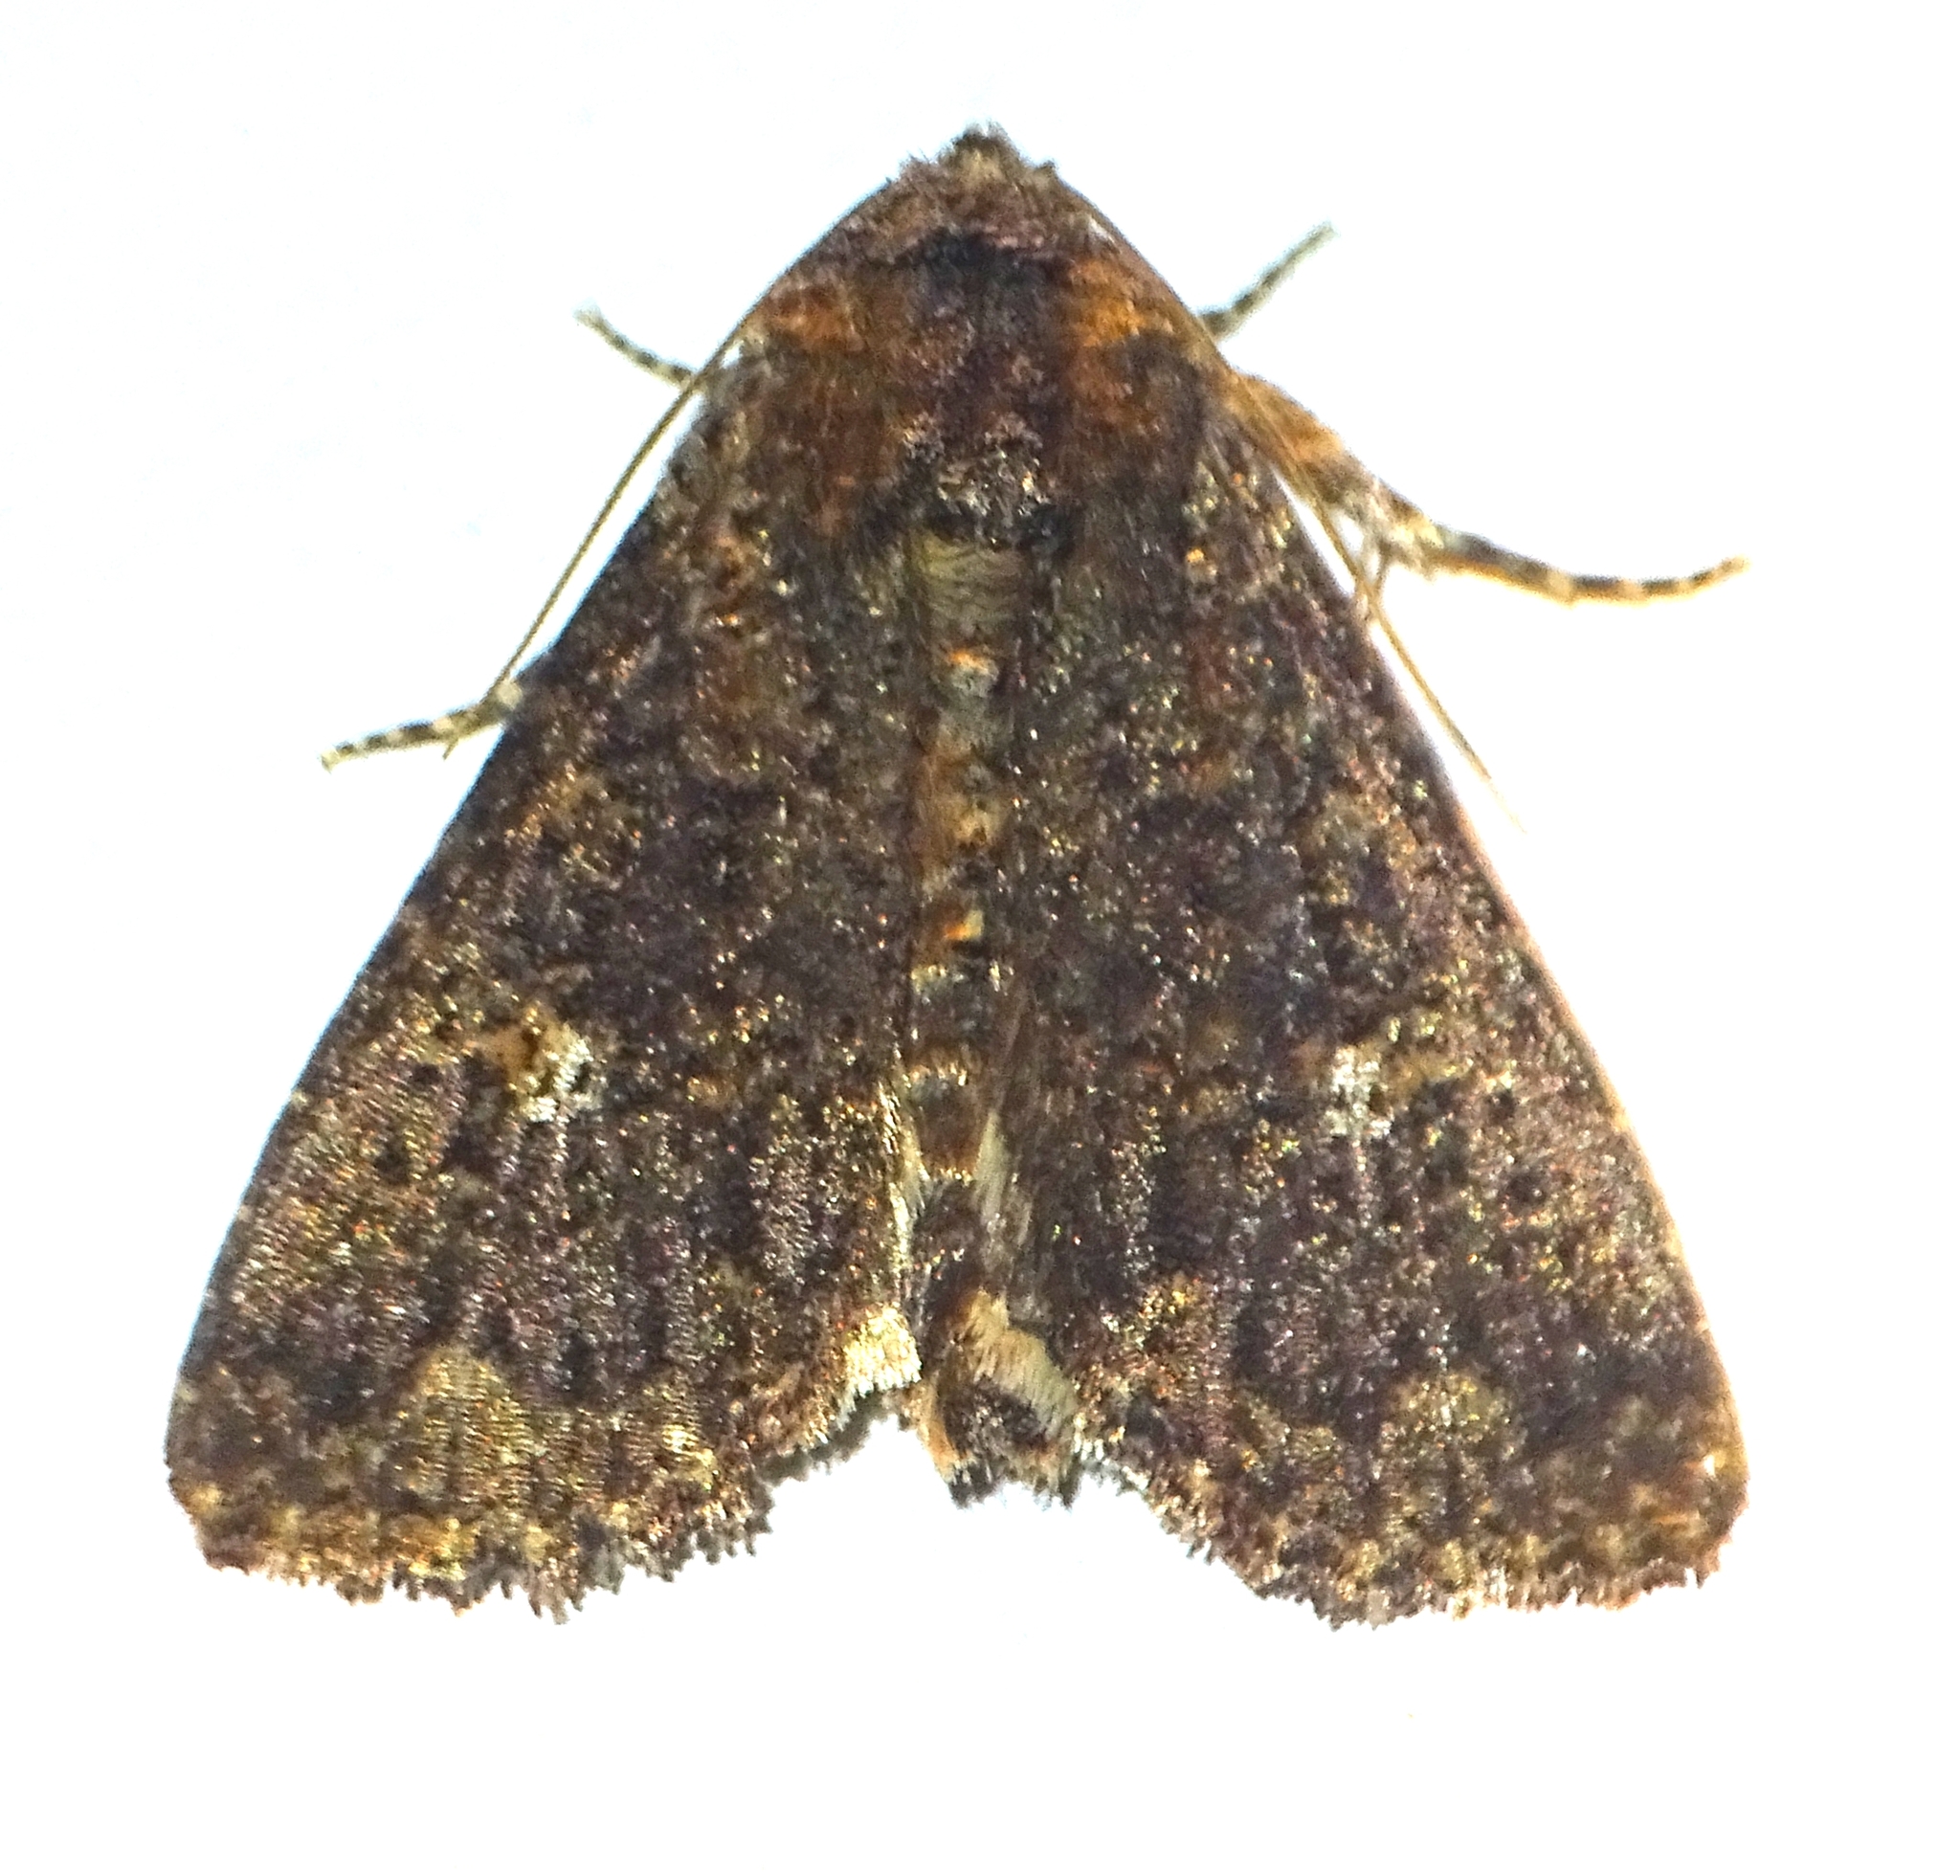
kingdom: Animalia
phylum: Arthropoda
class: Insecta
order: Lepidoptera
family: Noctuidae
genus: Condica
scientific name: Condica vecors
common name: Dusky groundling
